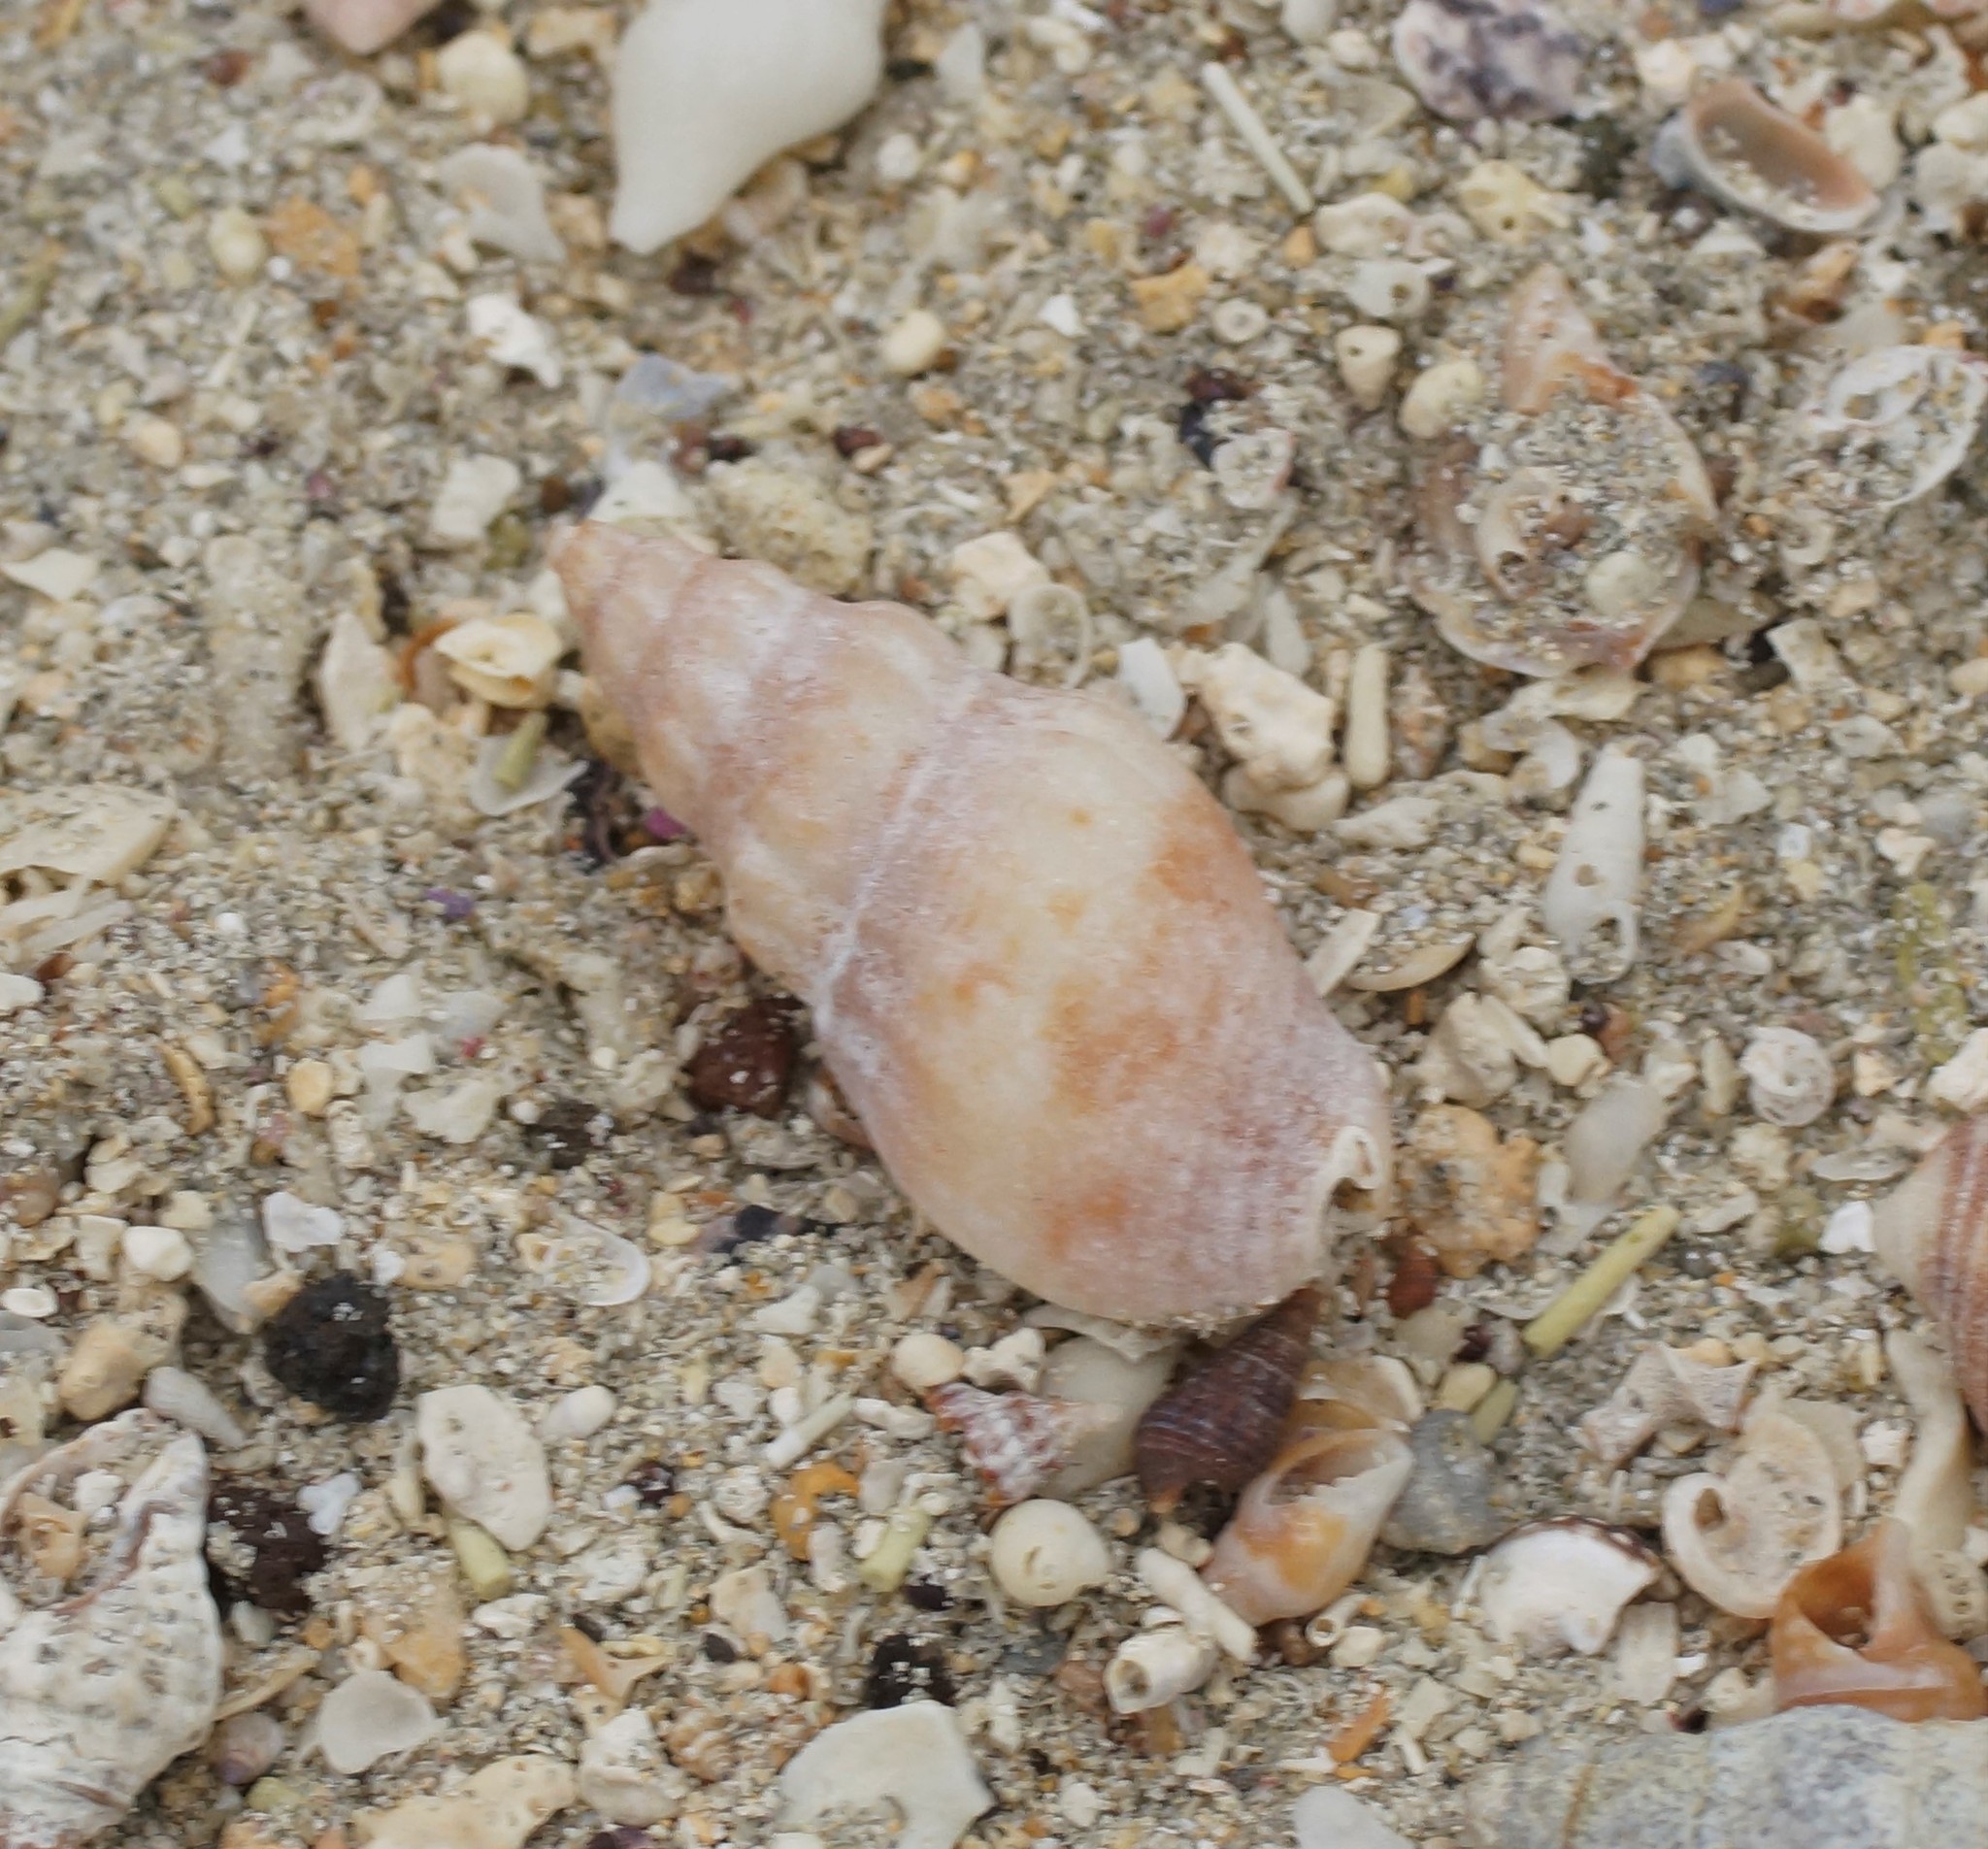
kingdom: Animalia
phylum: Mollusca
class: Gastropoda
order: Neogastropoda
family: Cominellidae
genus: Cominella
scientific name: Cominella eburnea
